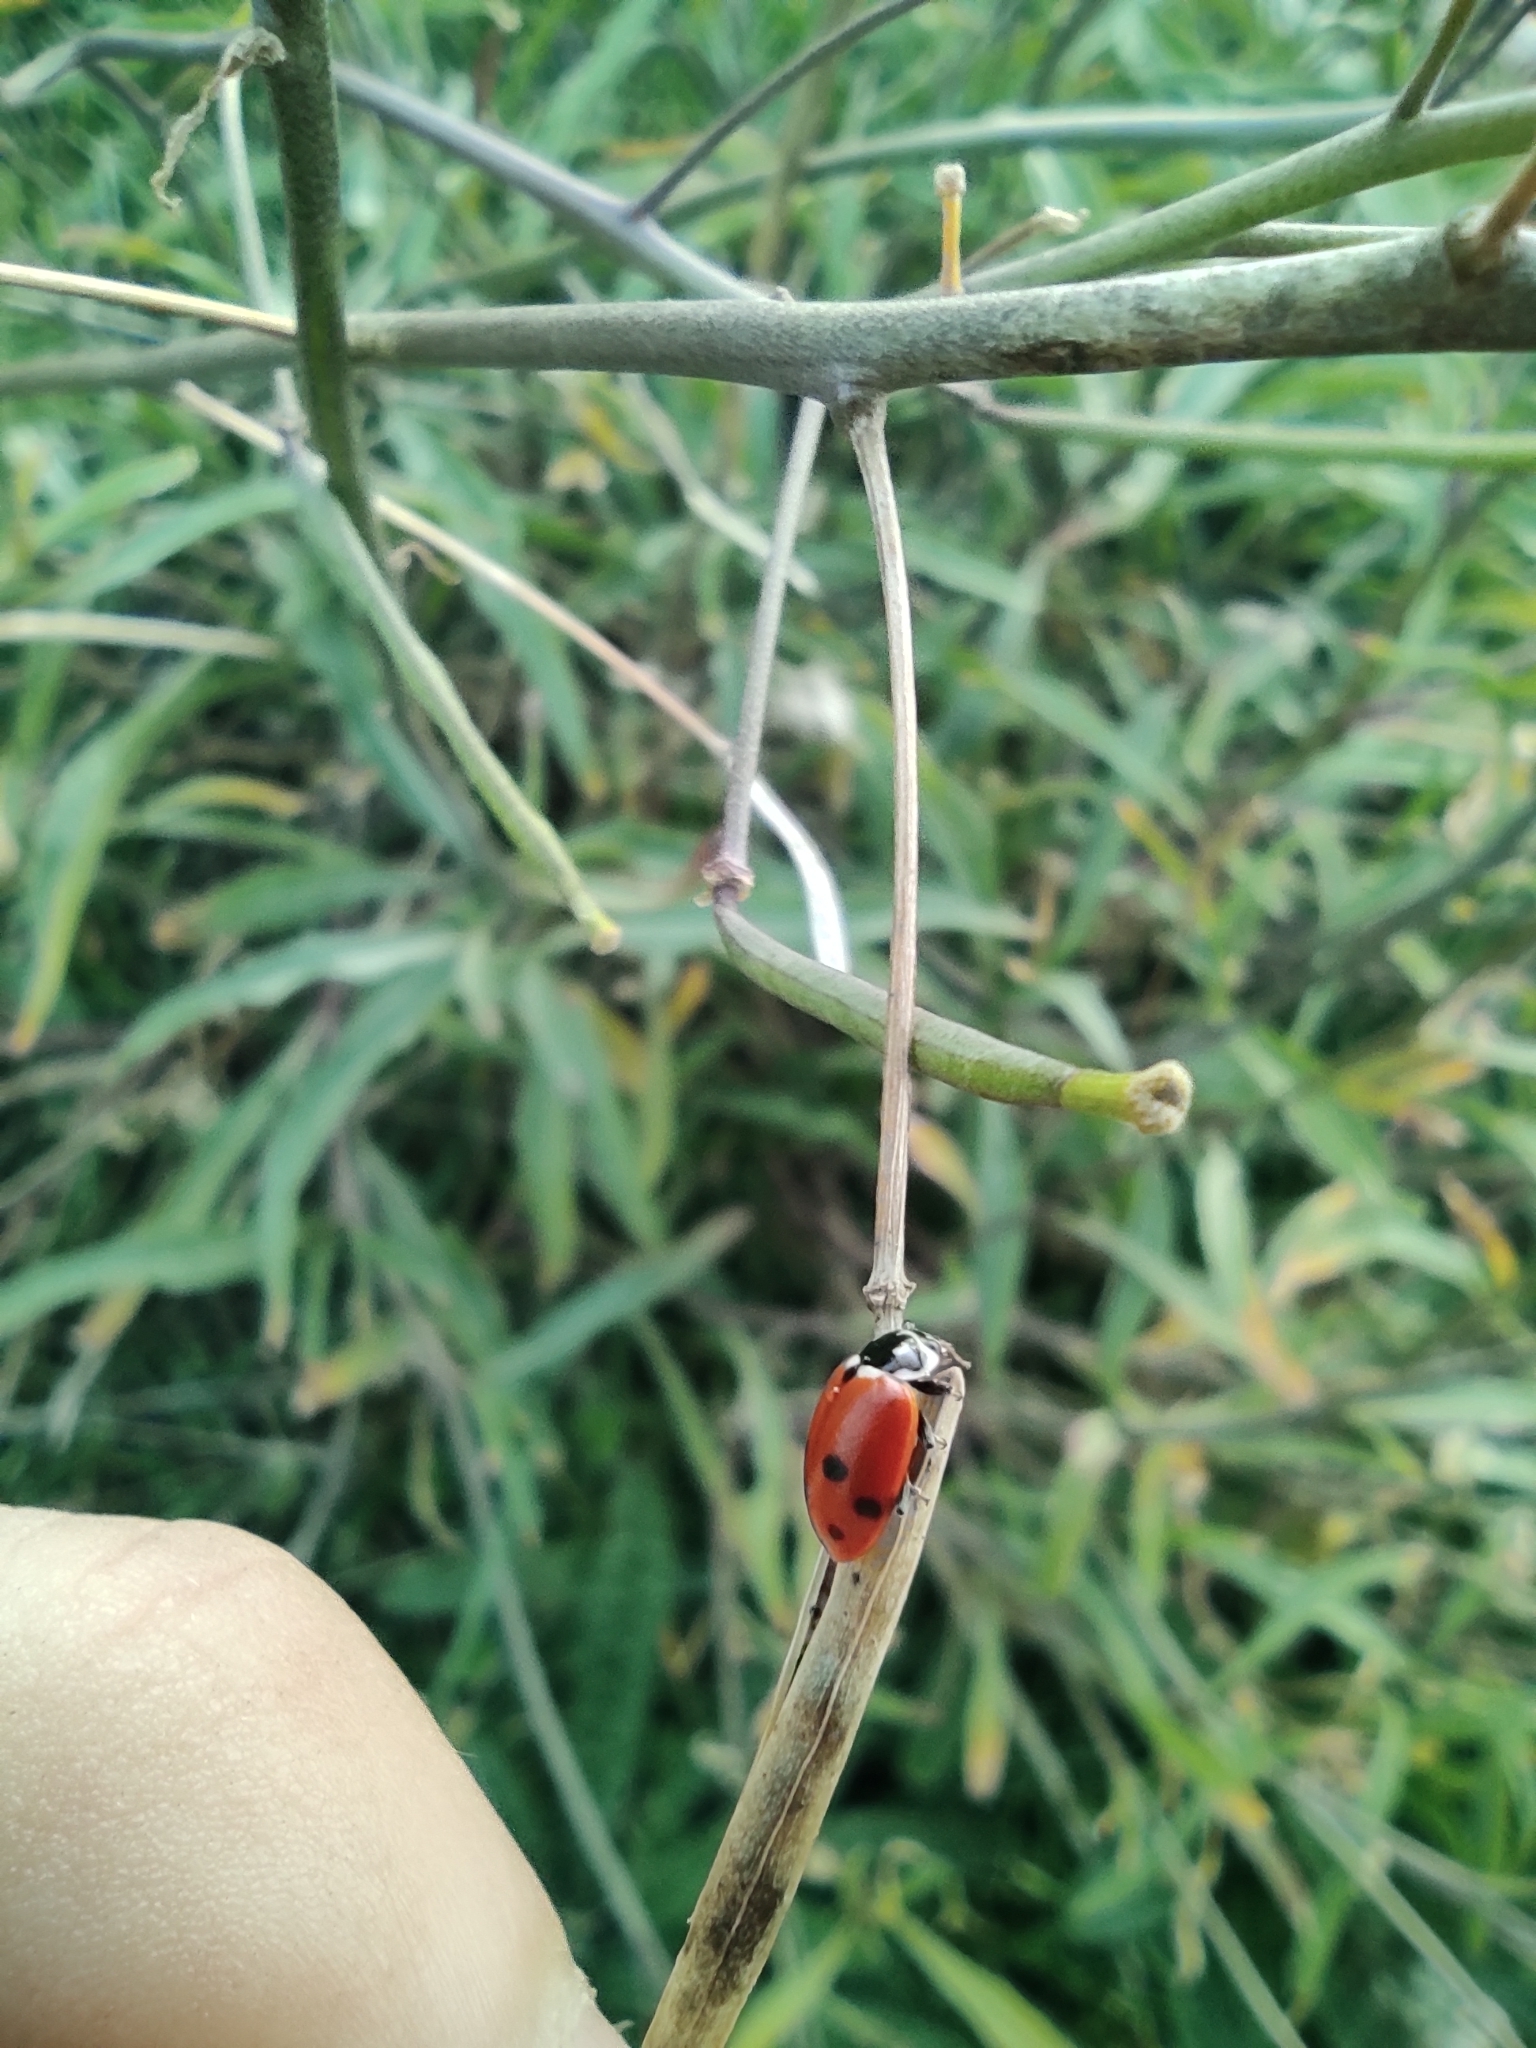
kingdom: Animalia
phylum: Arthropoda
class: Insecta
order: Coleoptera
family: Coccinellidae
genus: Hippodamia
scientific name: Hippodamia variegata
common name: Ladybird beetle
